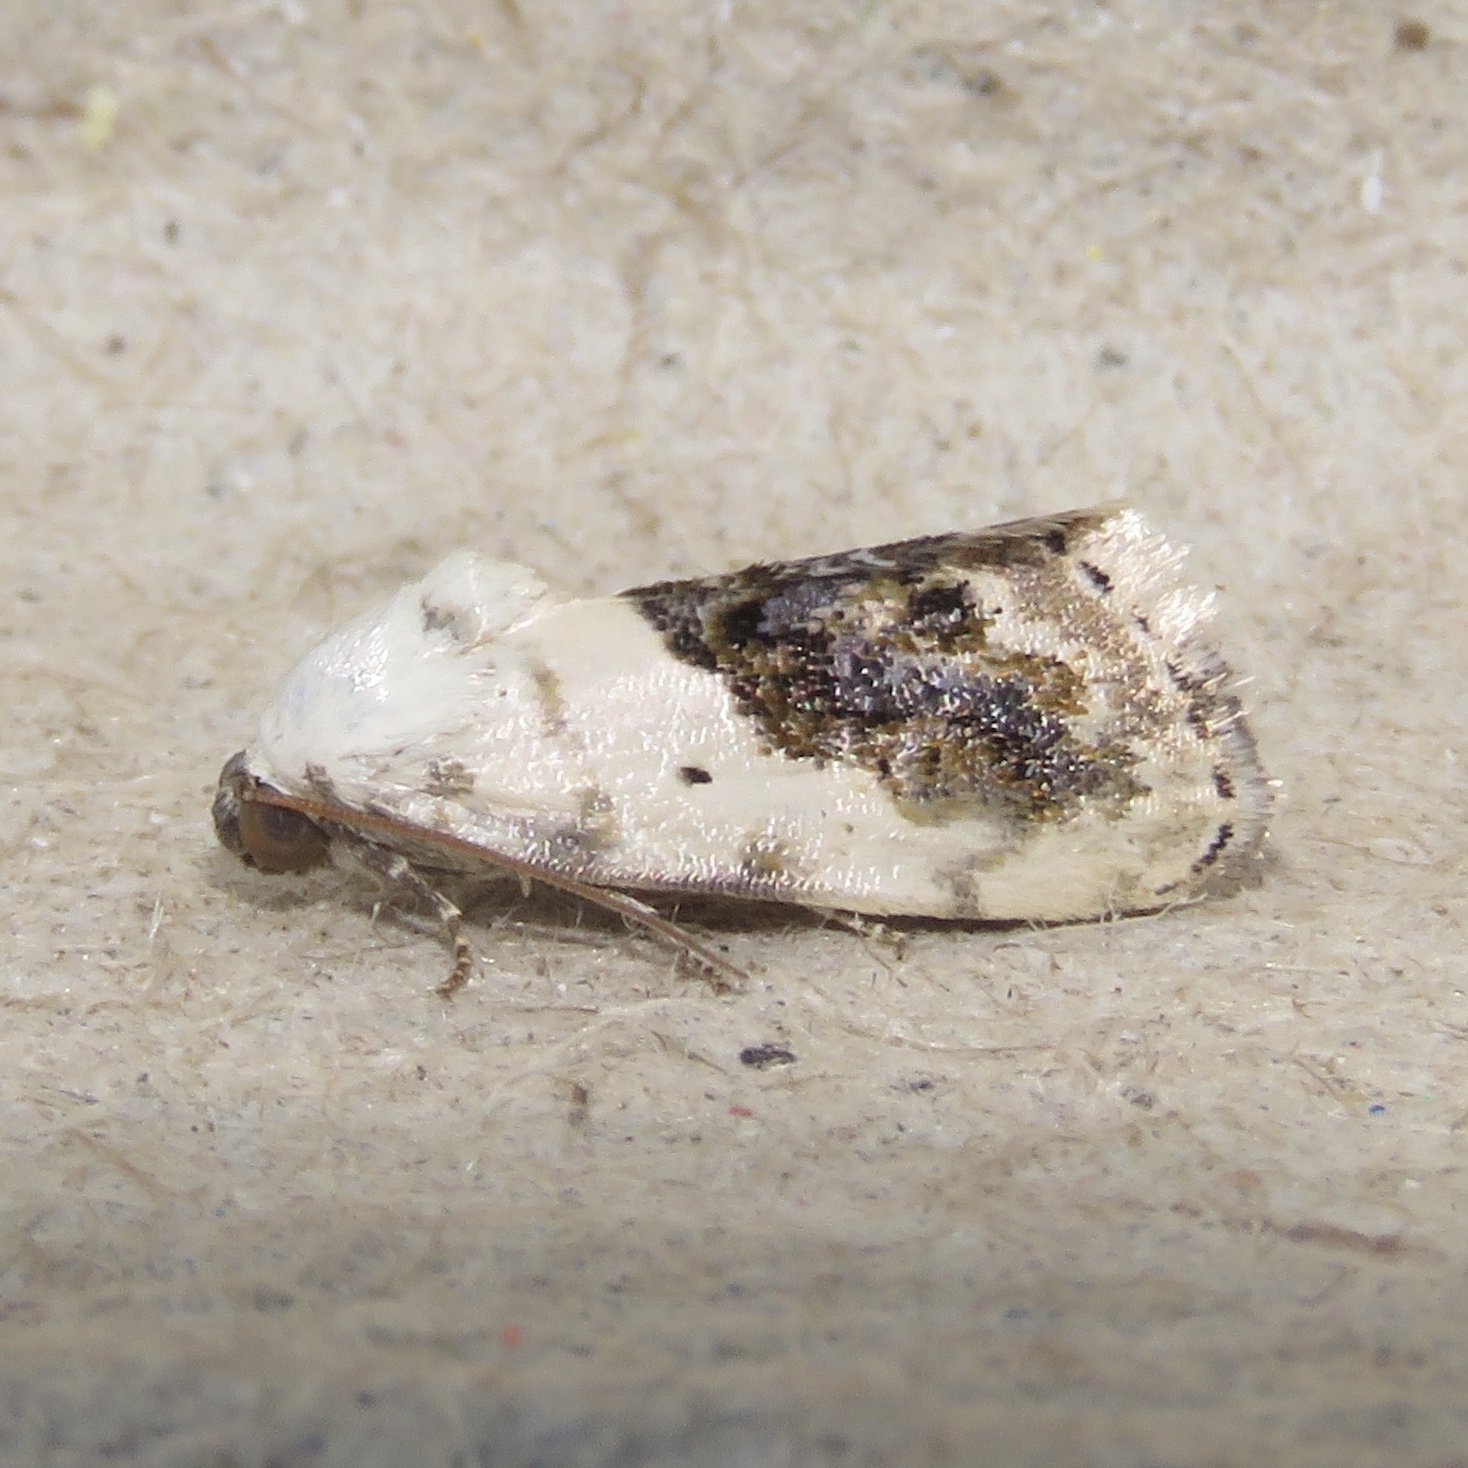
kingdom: Animalia
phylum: Arthropoda
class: Insecta
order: Lepidoptera
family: Noctuidae
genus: Acontia
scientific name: Acontia erastrioides
